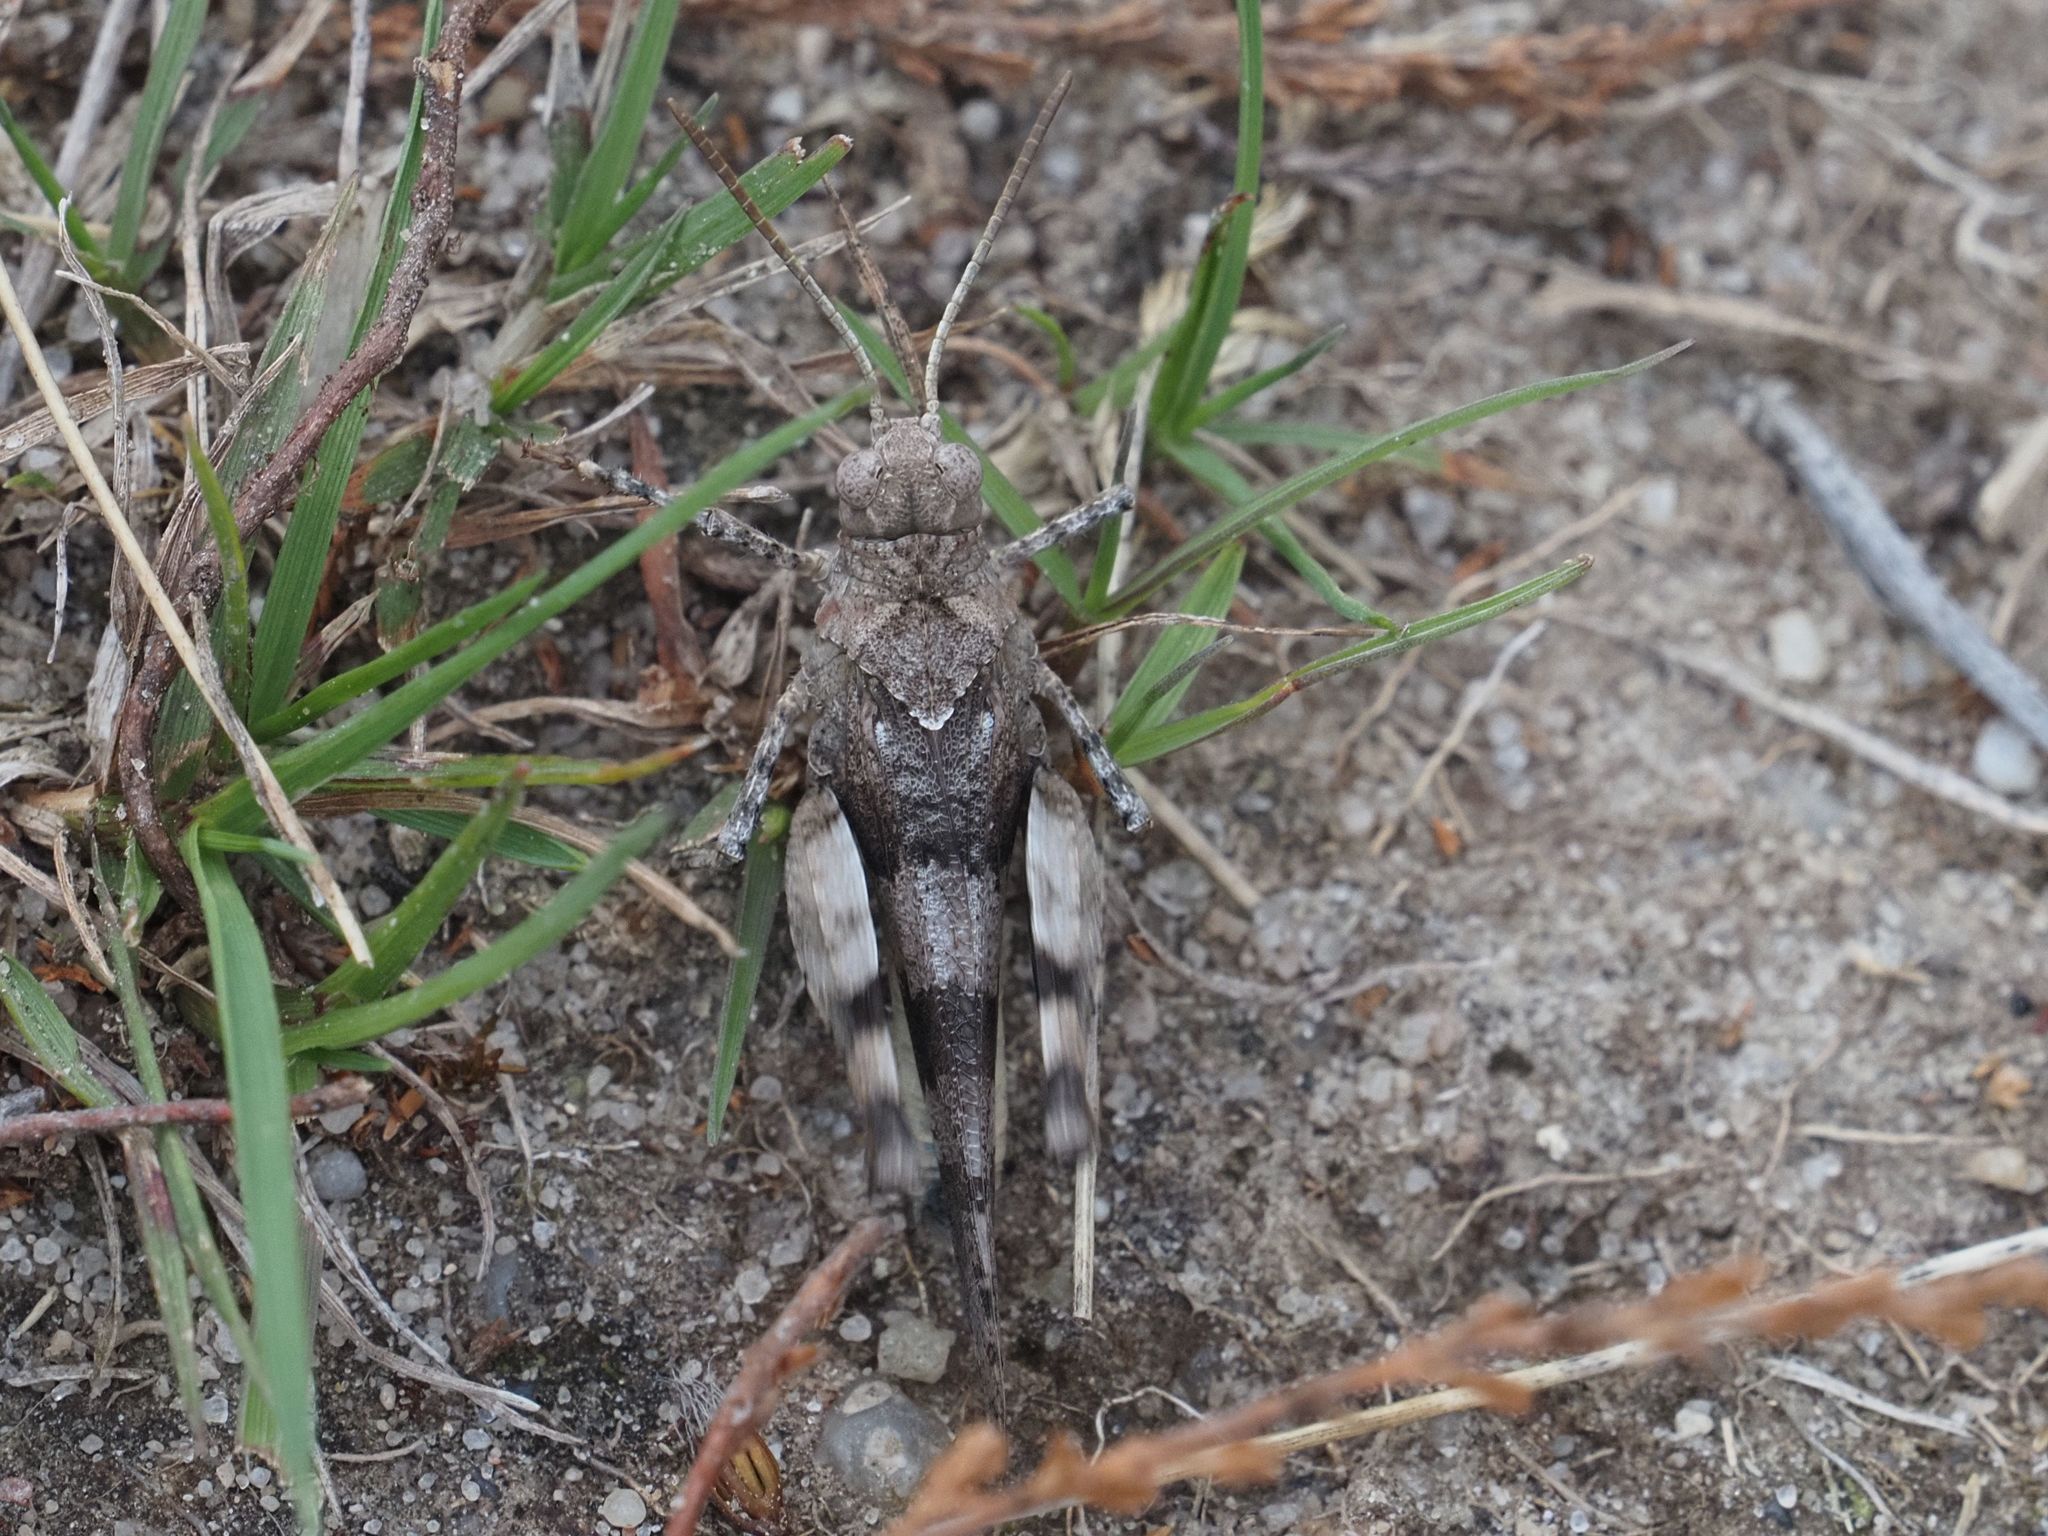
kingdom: Animalia
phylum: Arthropoda
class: Insecta
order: Orthoptera
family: Acrididae
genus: Oedipoda
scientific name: Oedipoda caerulescens
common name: Blue-winged grasshopper
